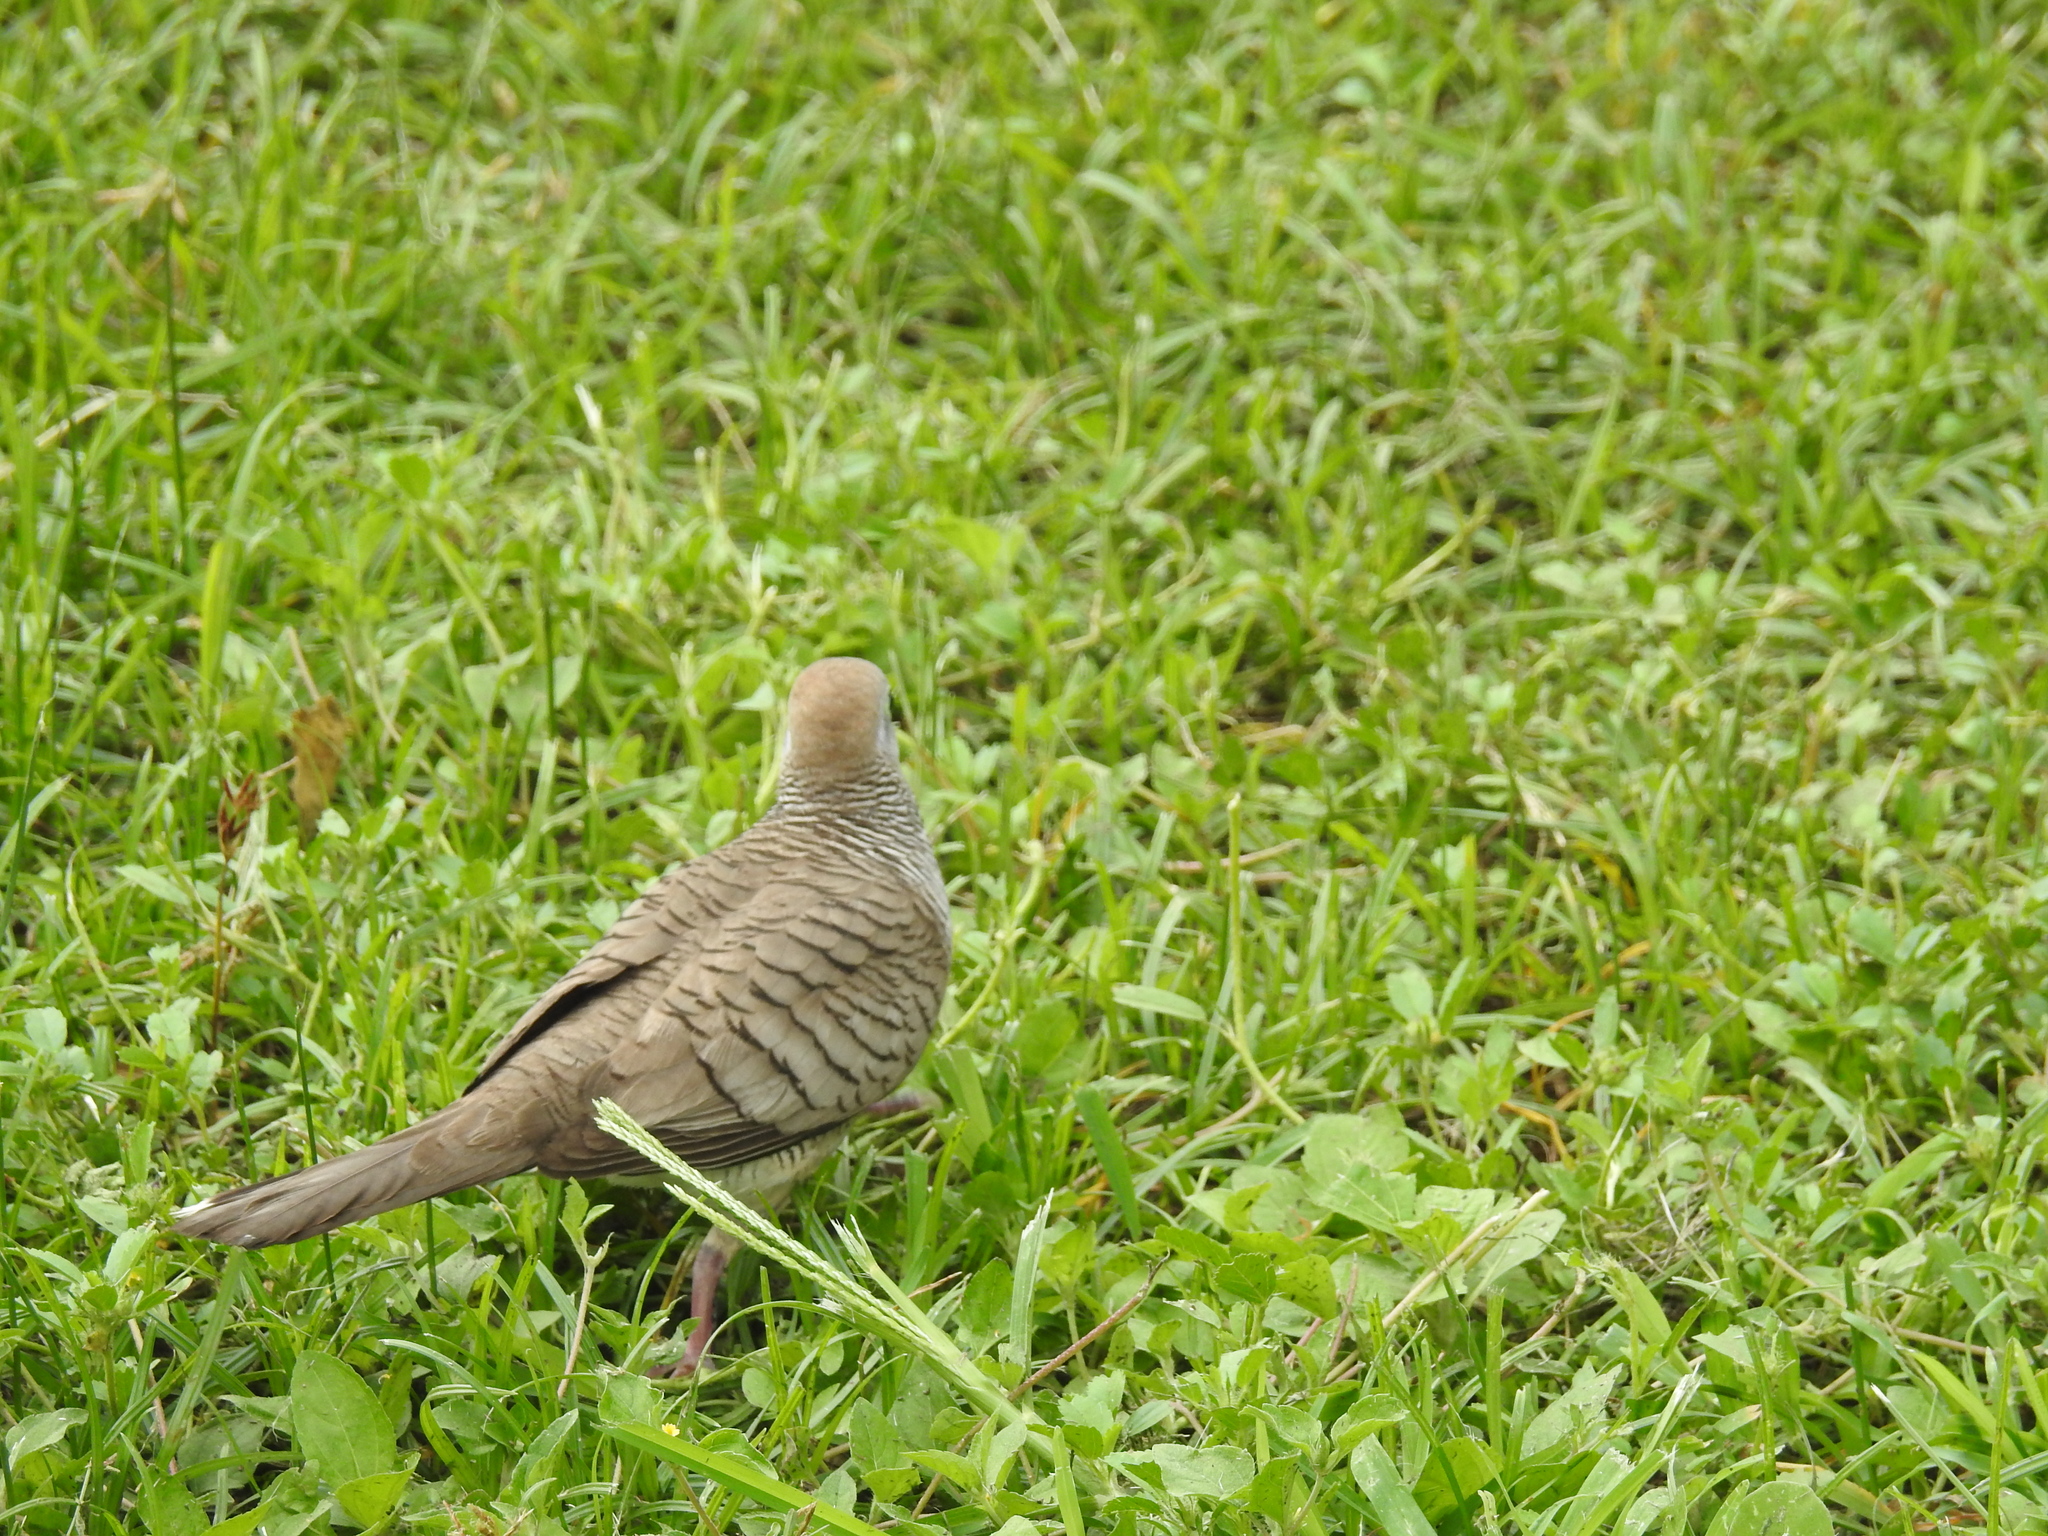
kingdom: Animalia
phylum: Chordata
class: Aves
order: Columbiformes
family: Columbidae
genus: Geopelia
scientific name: Geopelia striata
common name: Zebra dove
